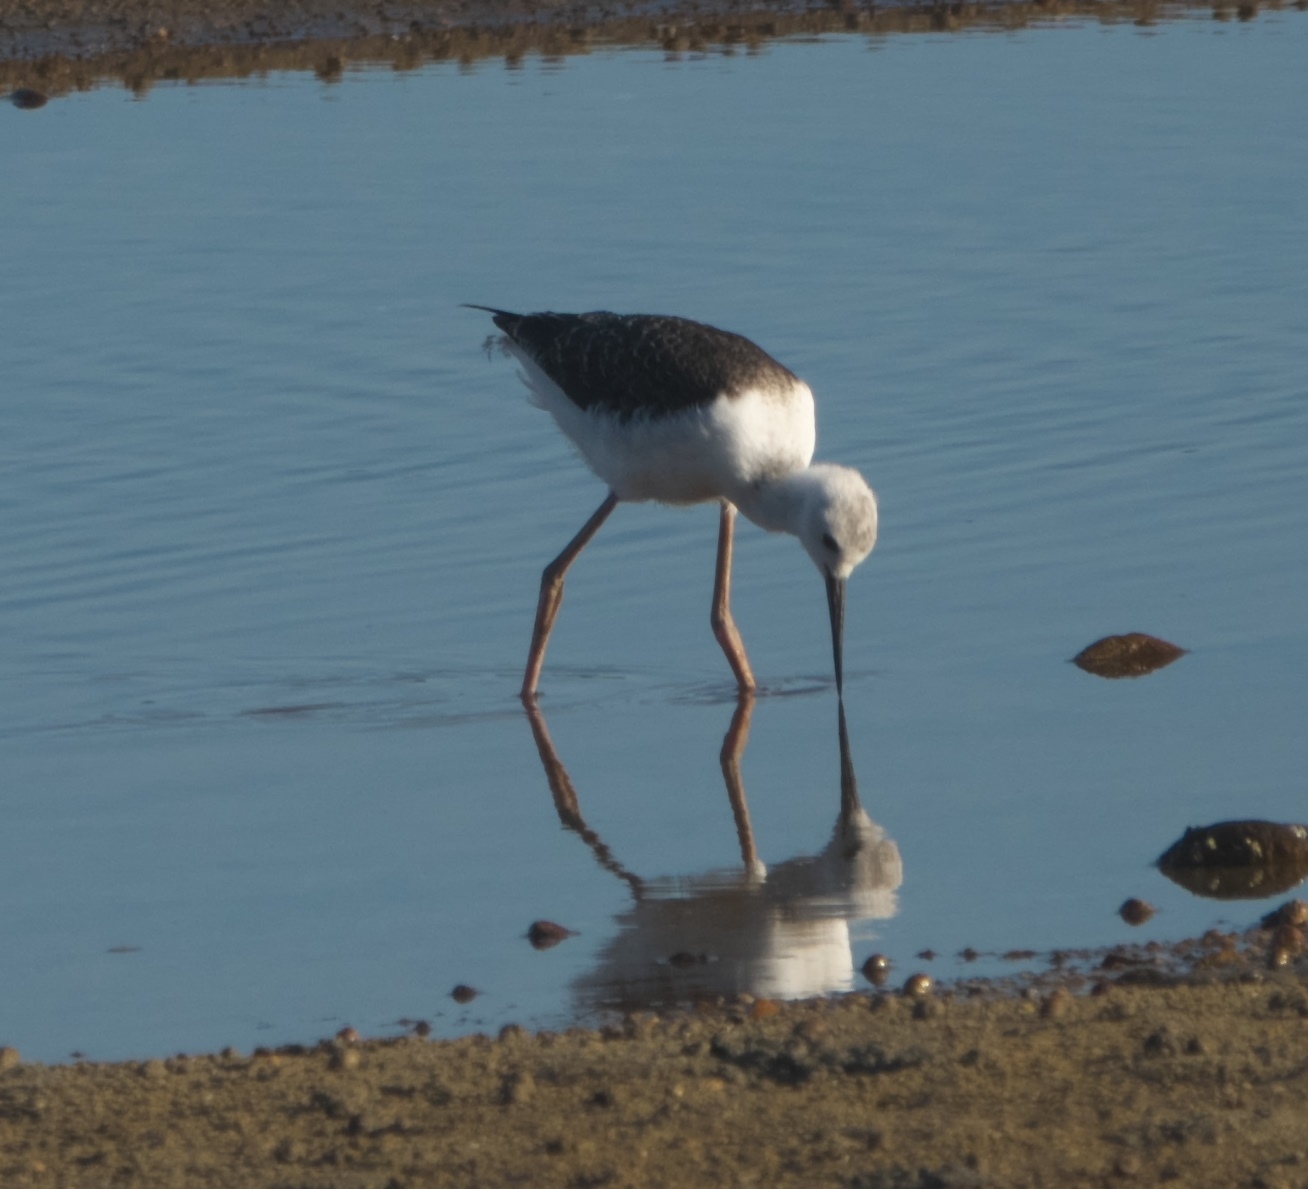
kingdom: Animalia
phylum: Chordata
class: Aves
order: Charadriiformes
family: Recurvirostridae
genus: Himantopus
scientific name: Himantopus leucocephalus
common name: White-headed stilt
